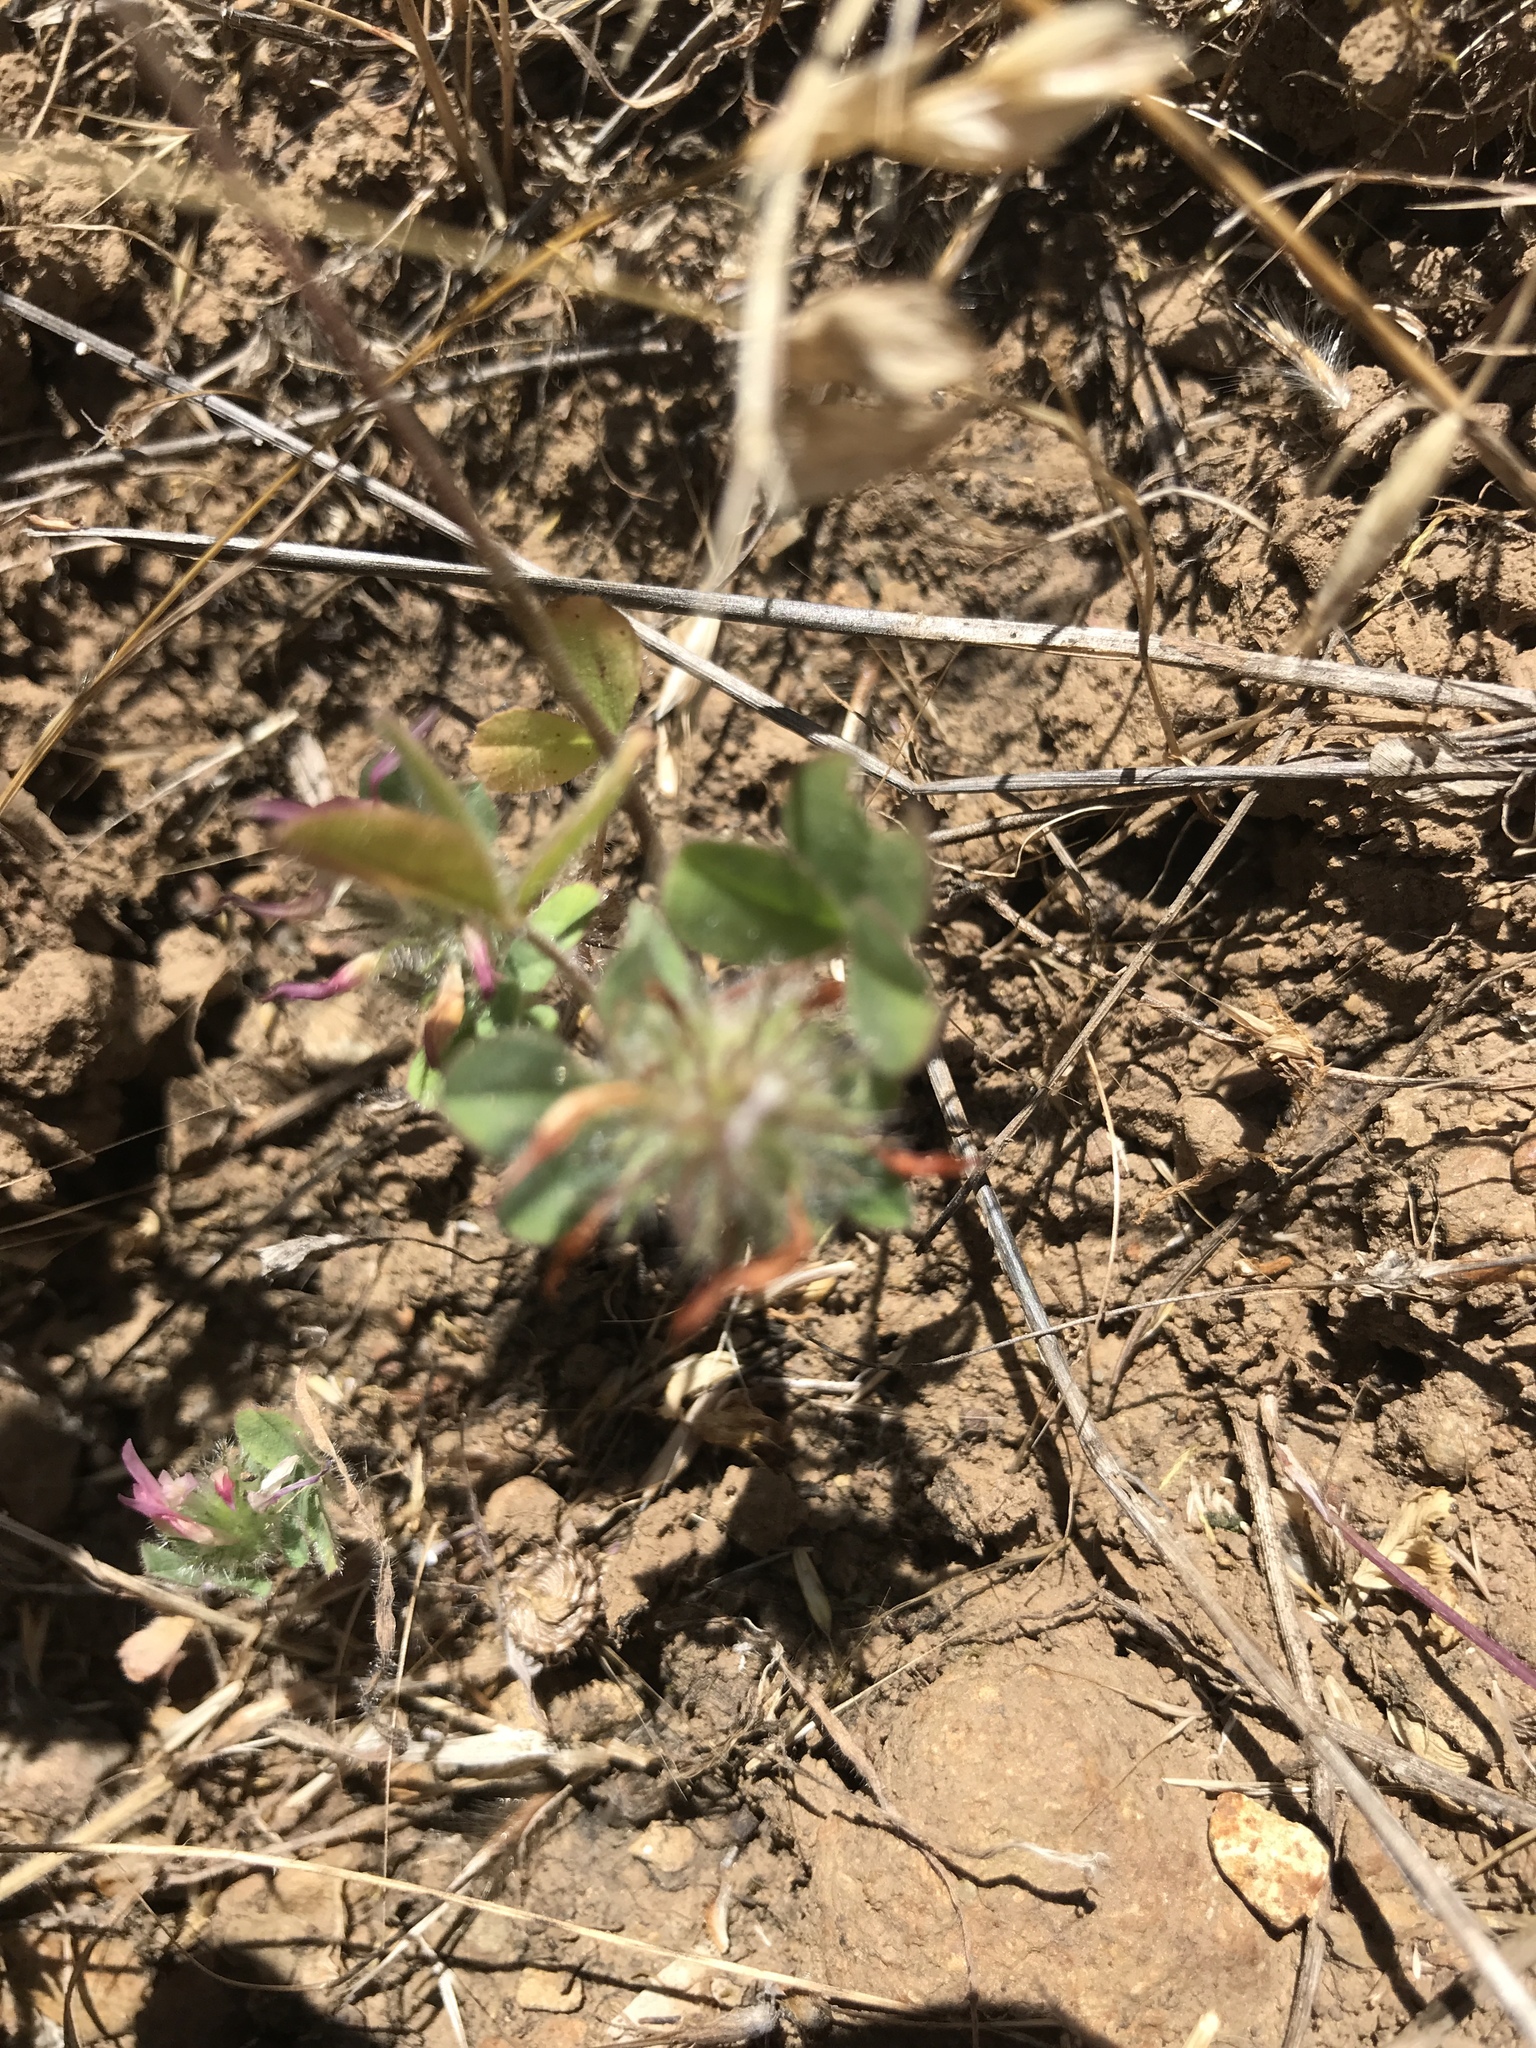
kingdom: Plantae
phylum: Tracheophyta
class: Magnoliopsida
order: Myrtales
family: Onagraceae
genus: Clarkia
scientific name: Clarkia rubicunda
